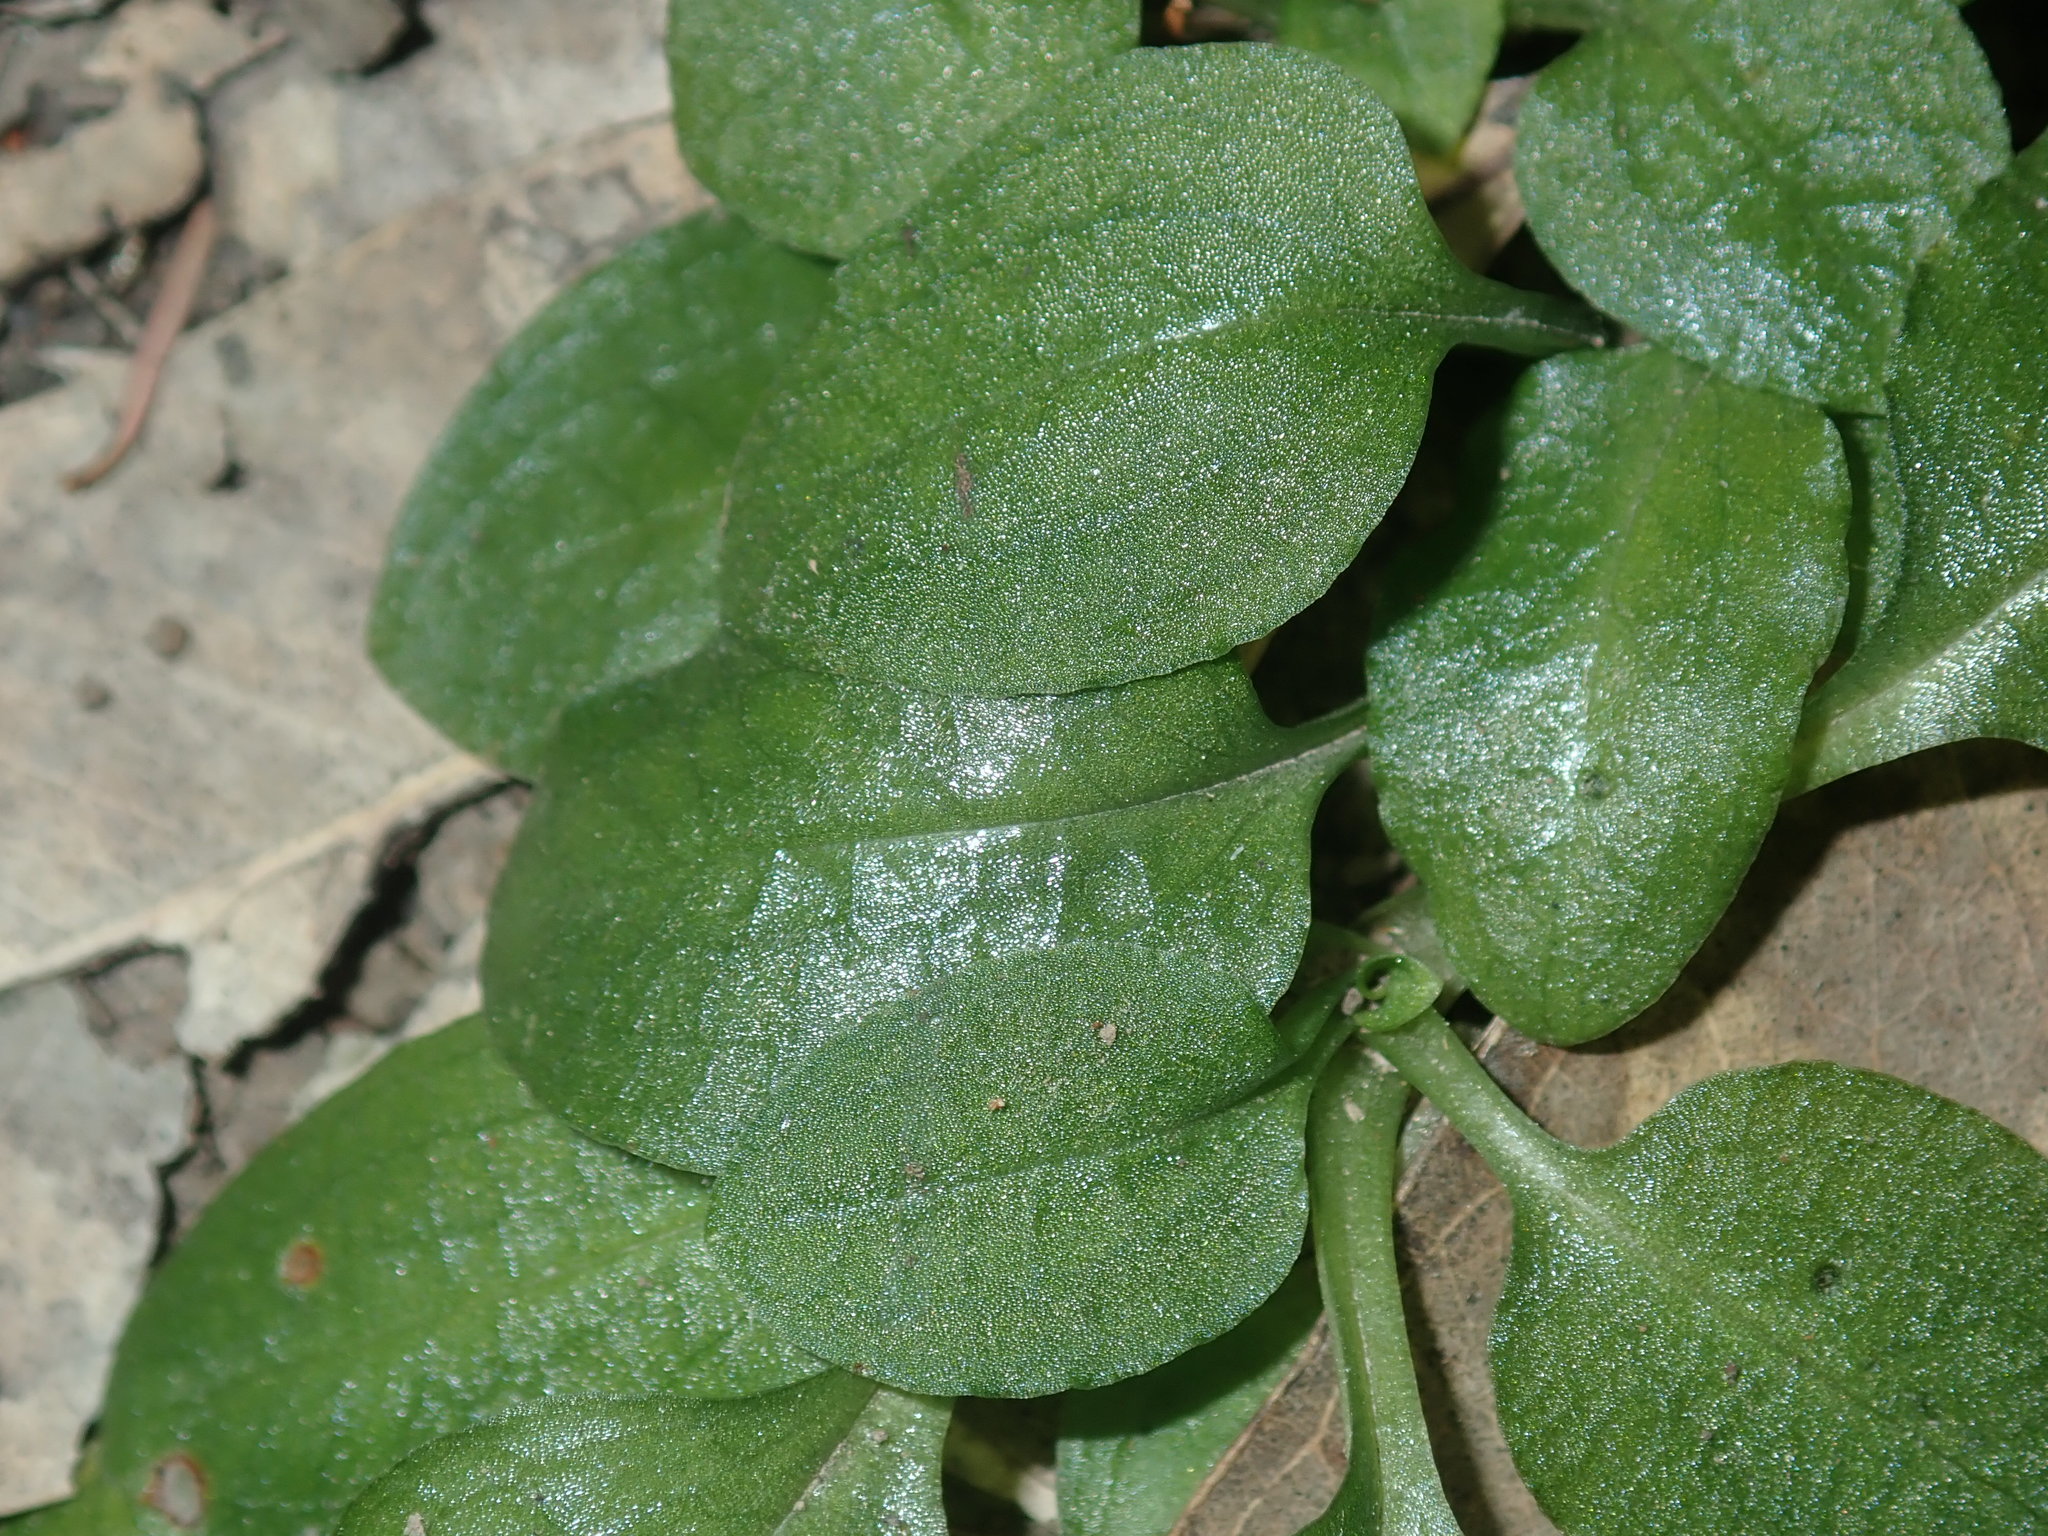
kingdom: Plantae
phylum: Tracheophyta
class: Liliopsida
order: Asparagales
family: Orchidaceae
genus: Pterostylis
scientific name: Pterostylis nutans
